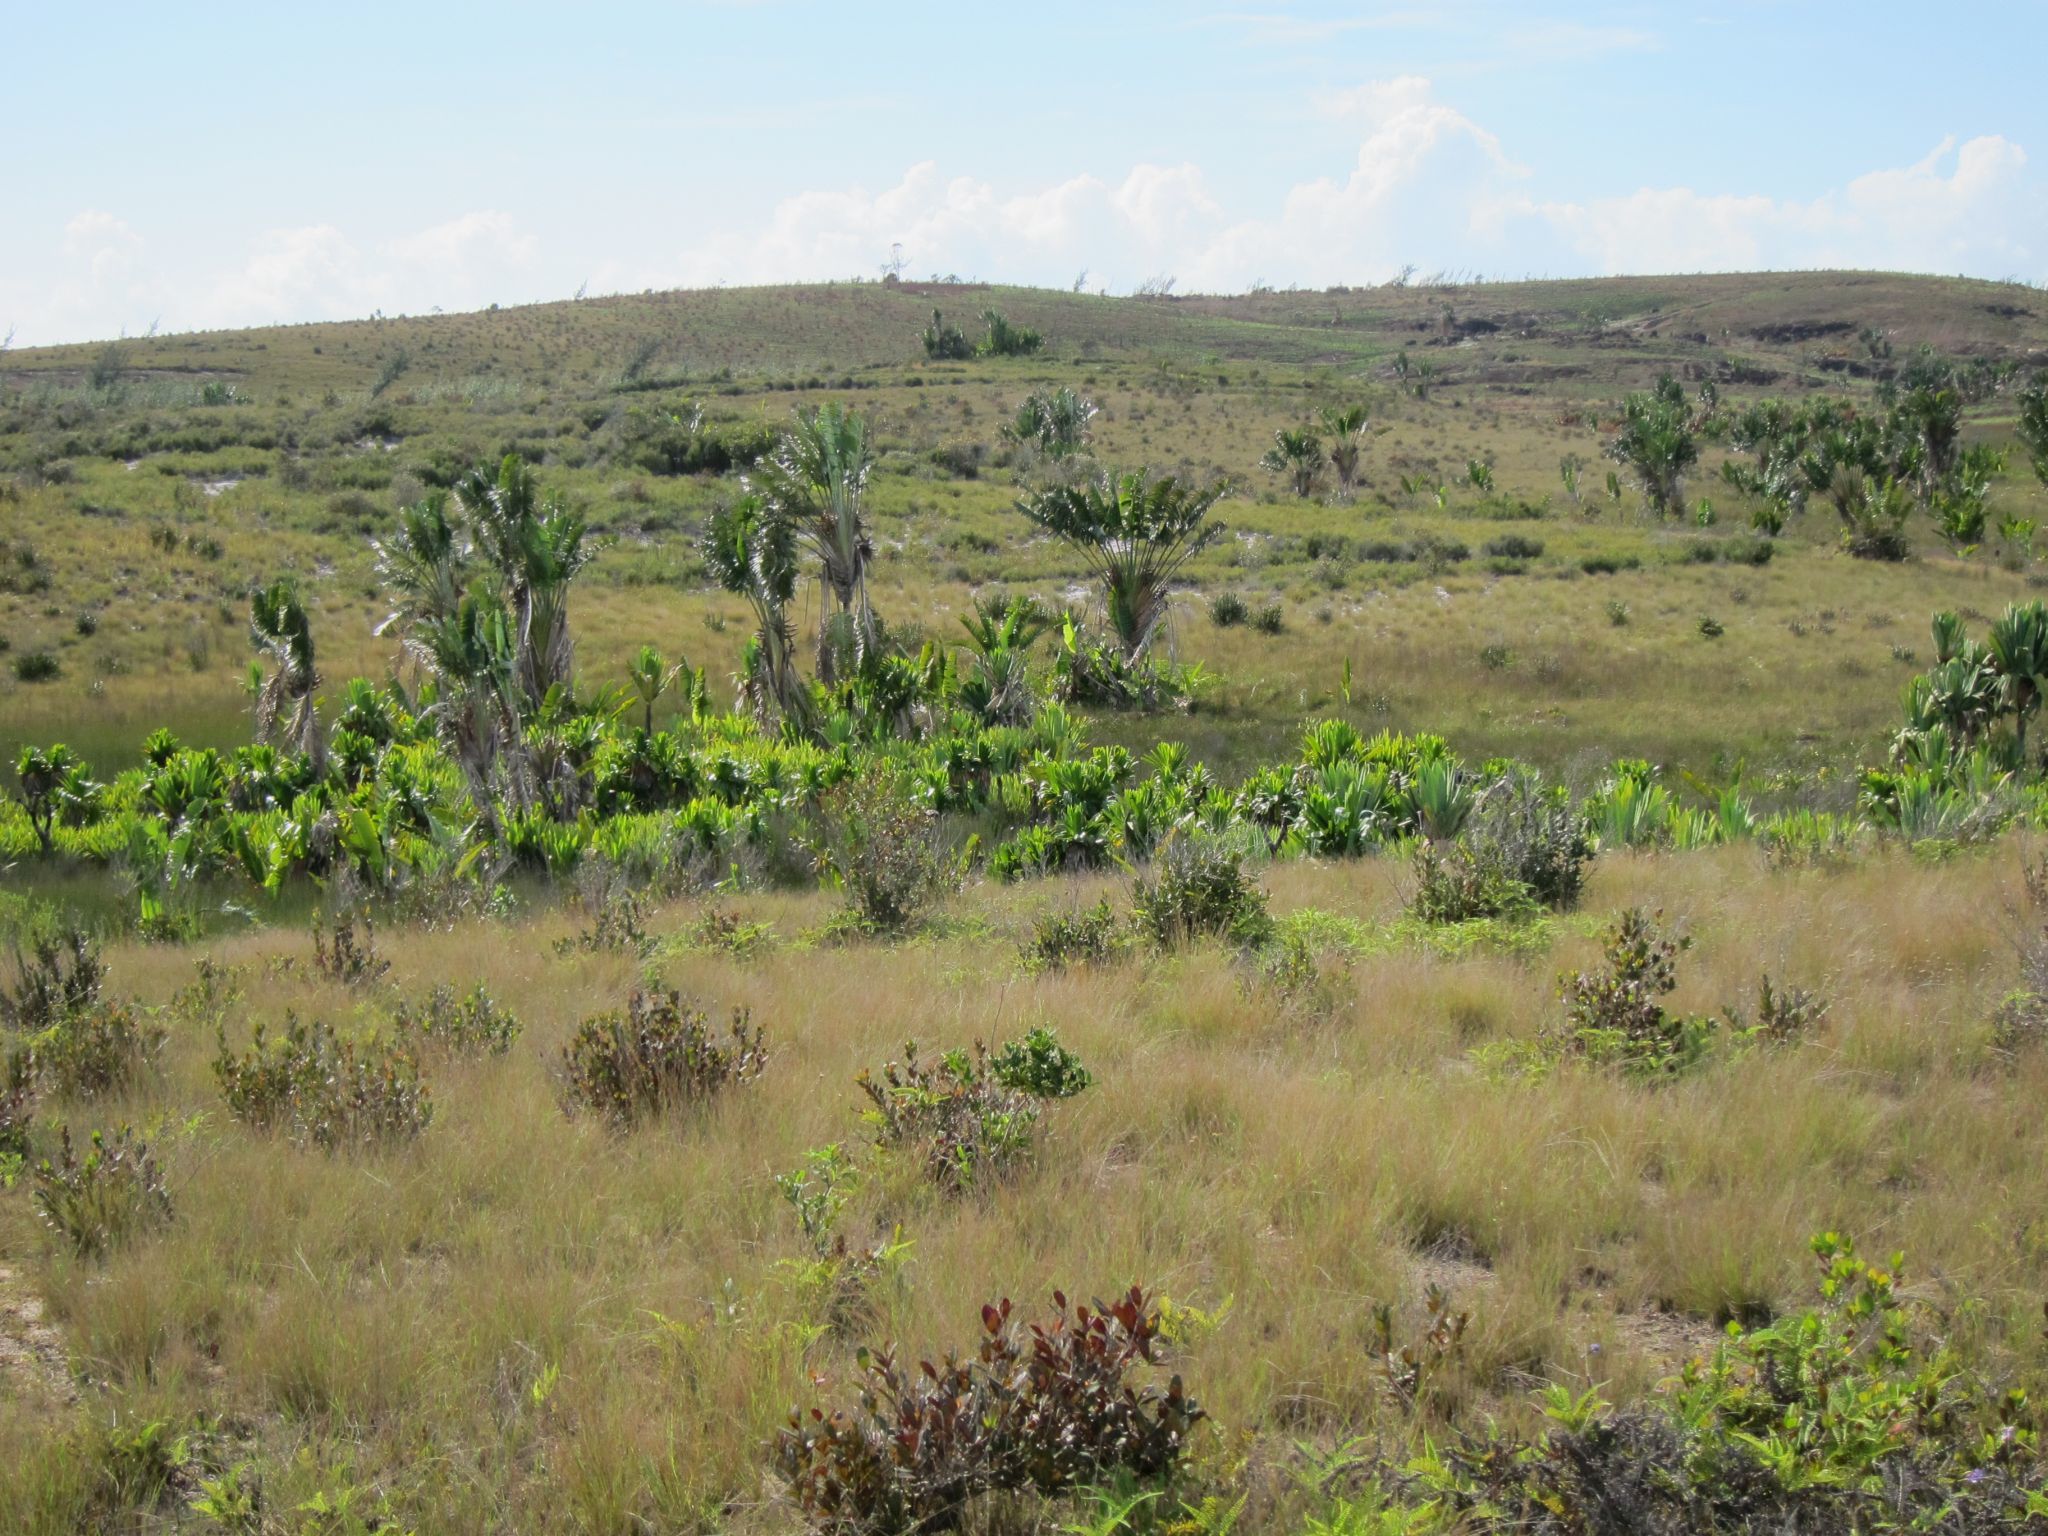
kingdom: Plantae
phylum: Tracheophyta
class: Liliopsida
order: Zingiberales
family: Strelitziaceae
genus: Ravenala
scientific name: Ravenala madagascariensis
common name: Traveler's-palm
